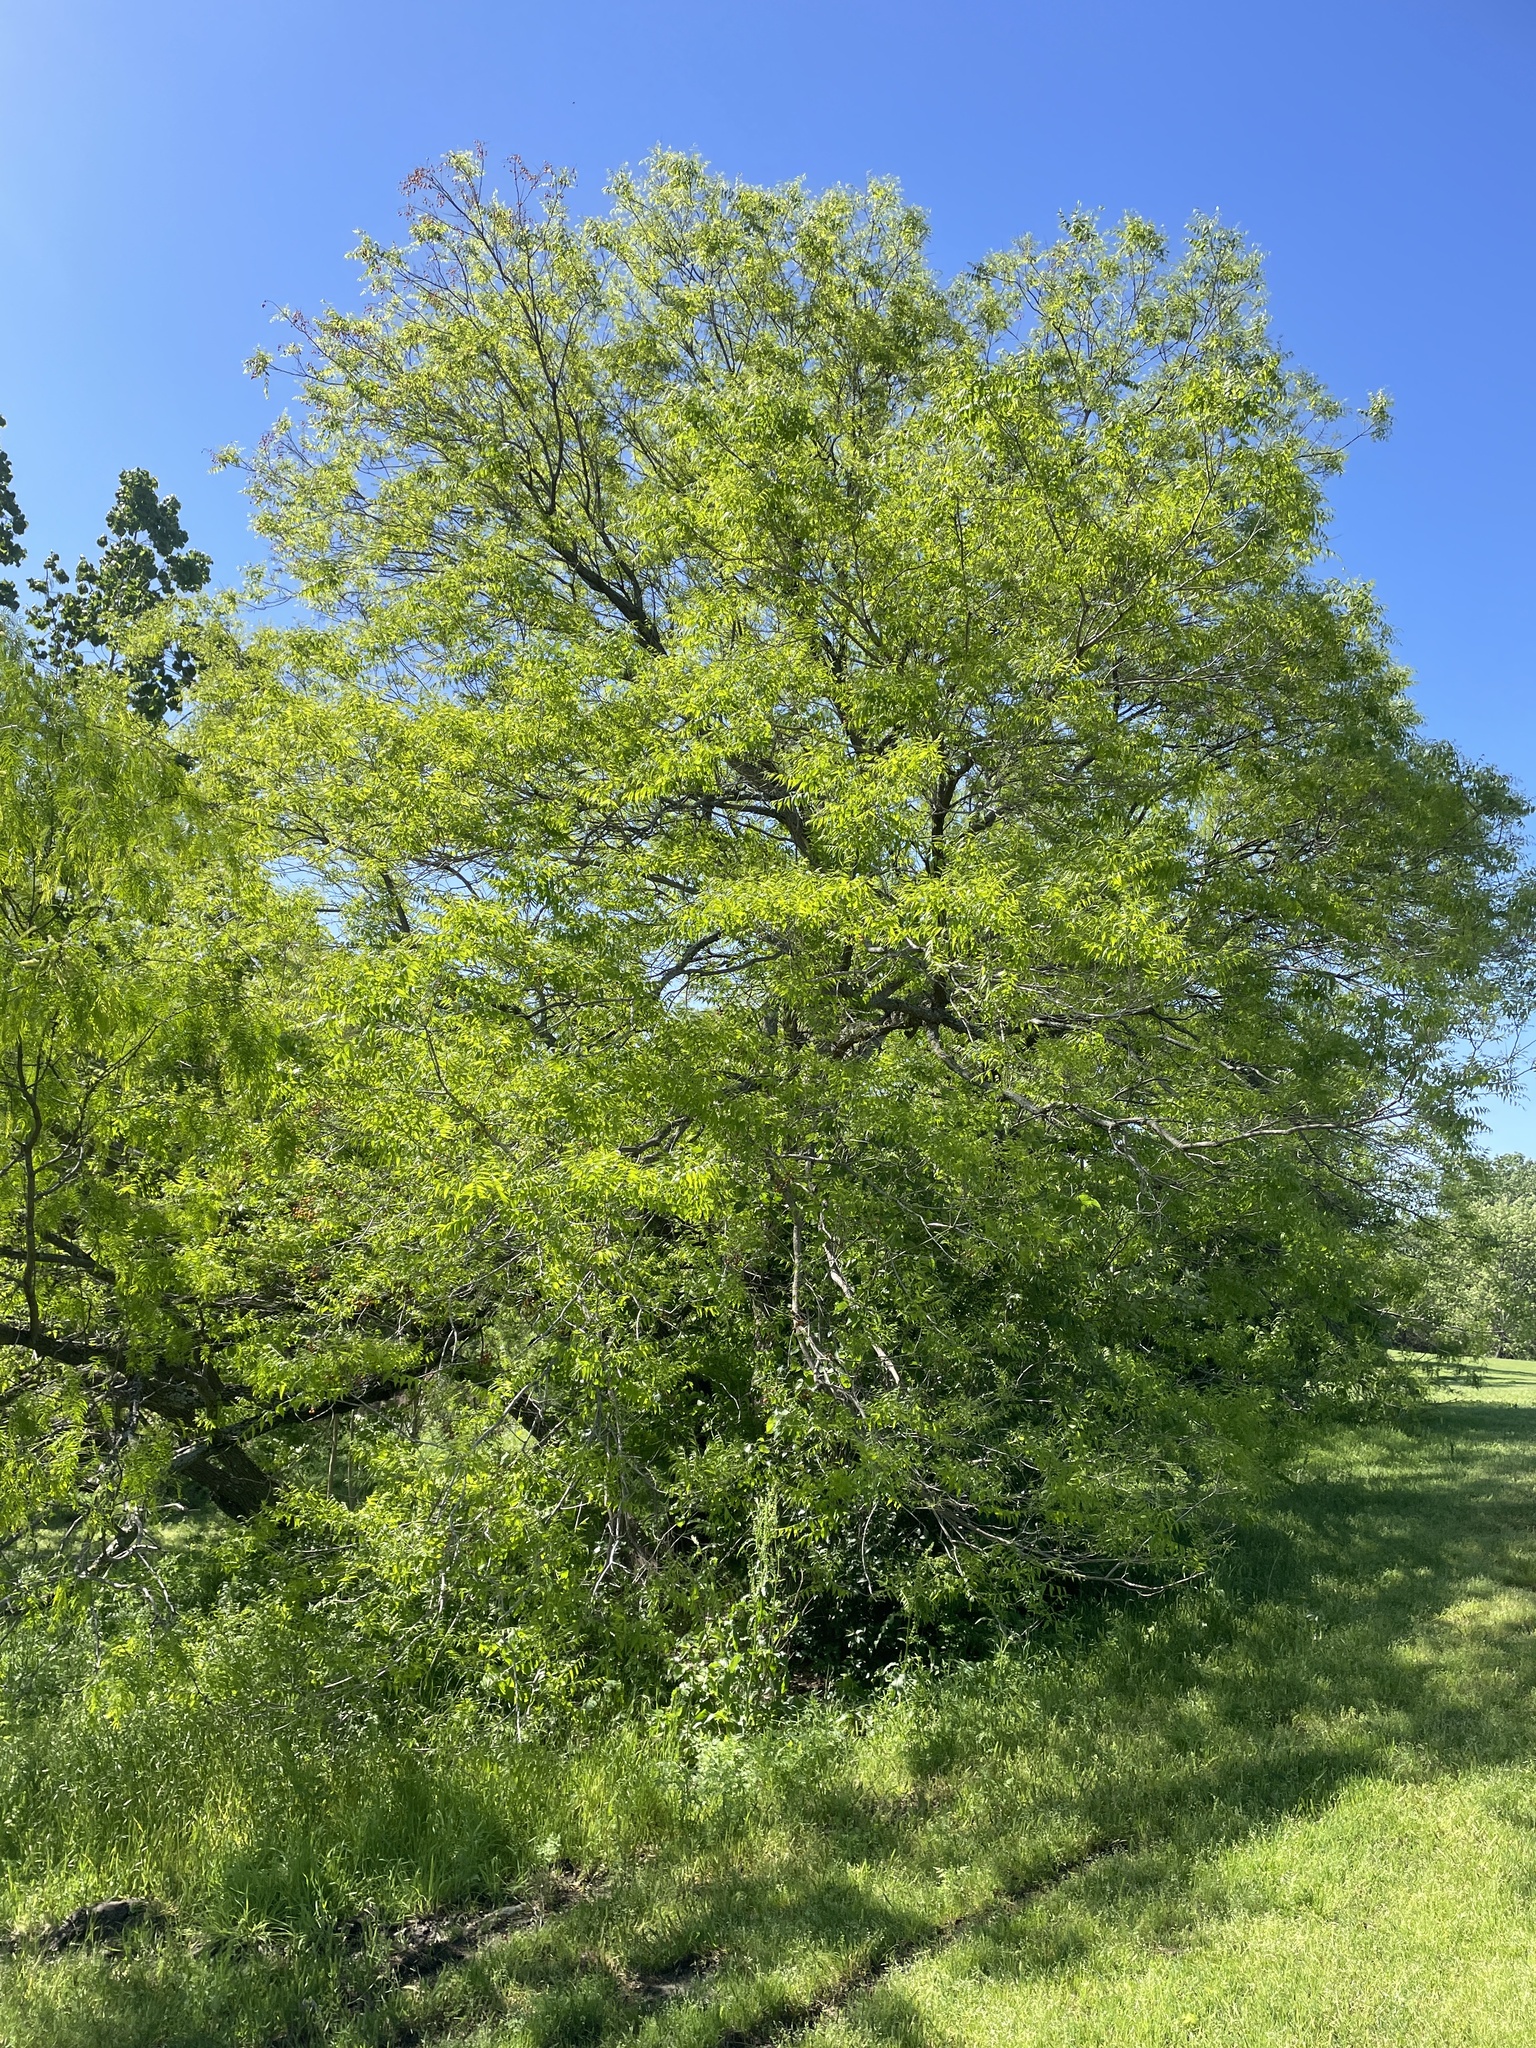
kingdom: Plantae
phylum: Tracheophyta
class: Magnoliopsida
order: Sapindales
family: Sapindaceae
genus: Sapindus
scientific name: Sapindus drummondii
